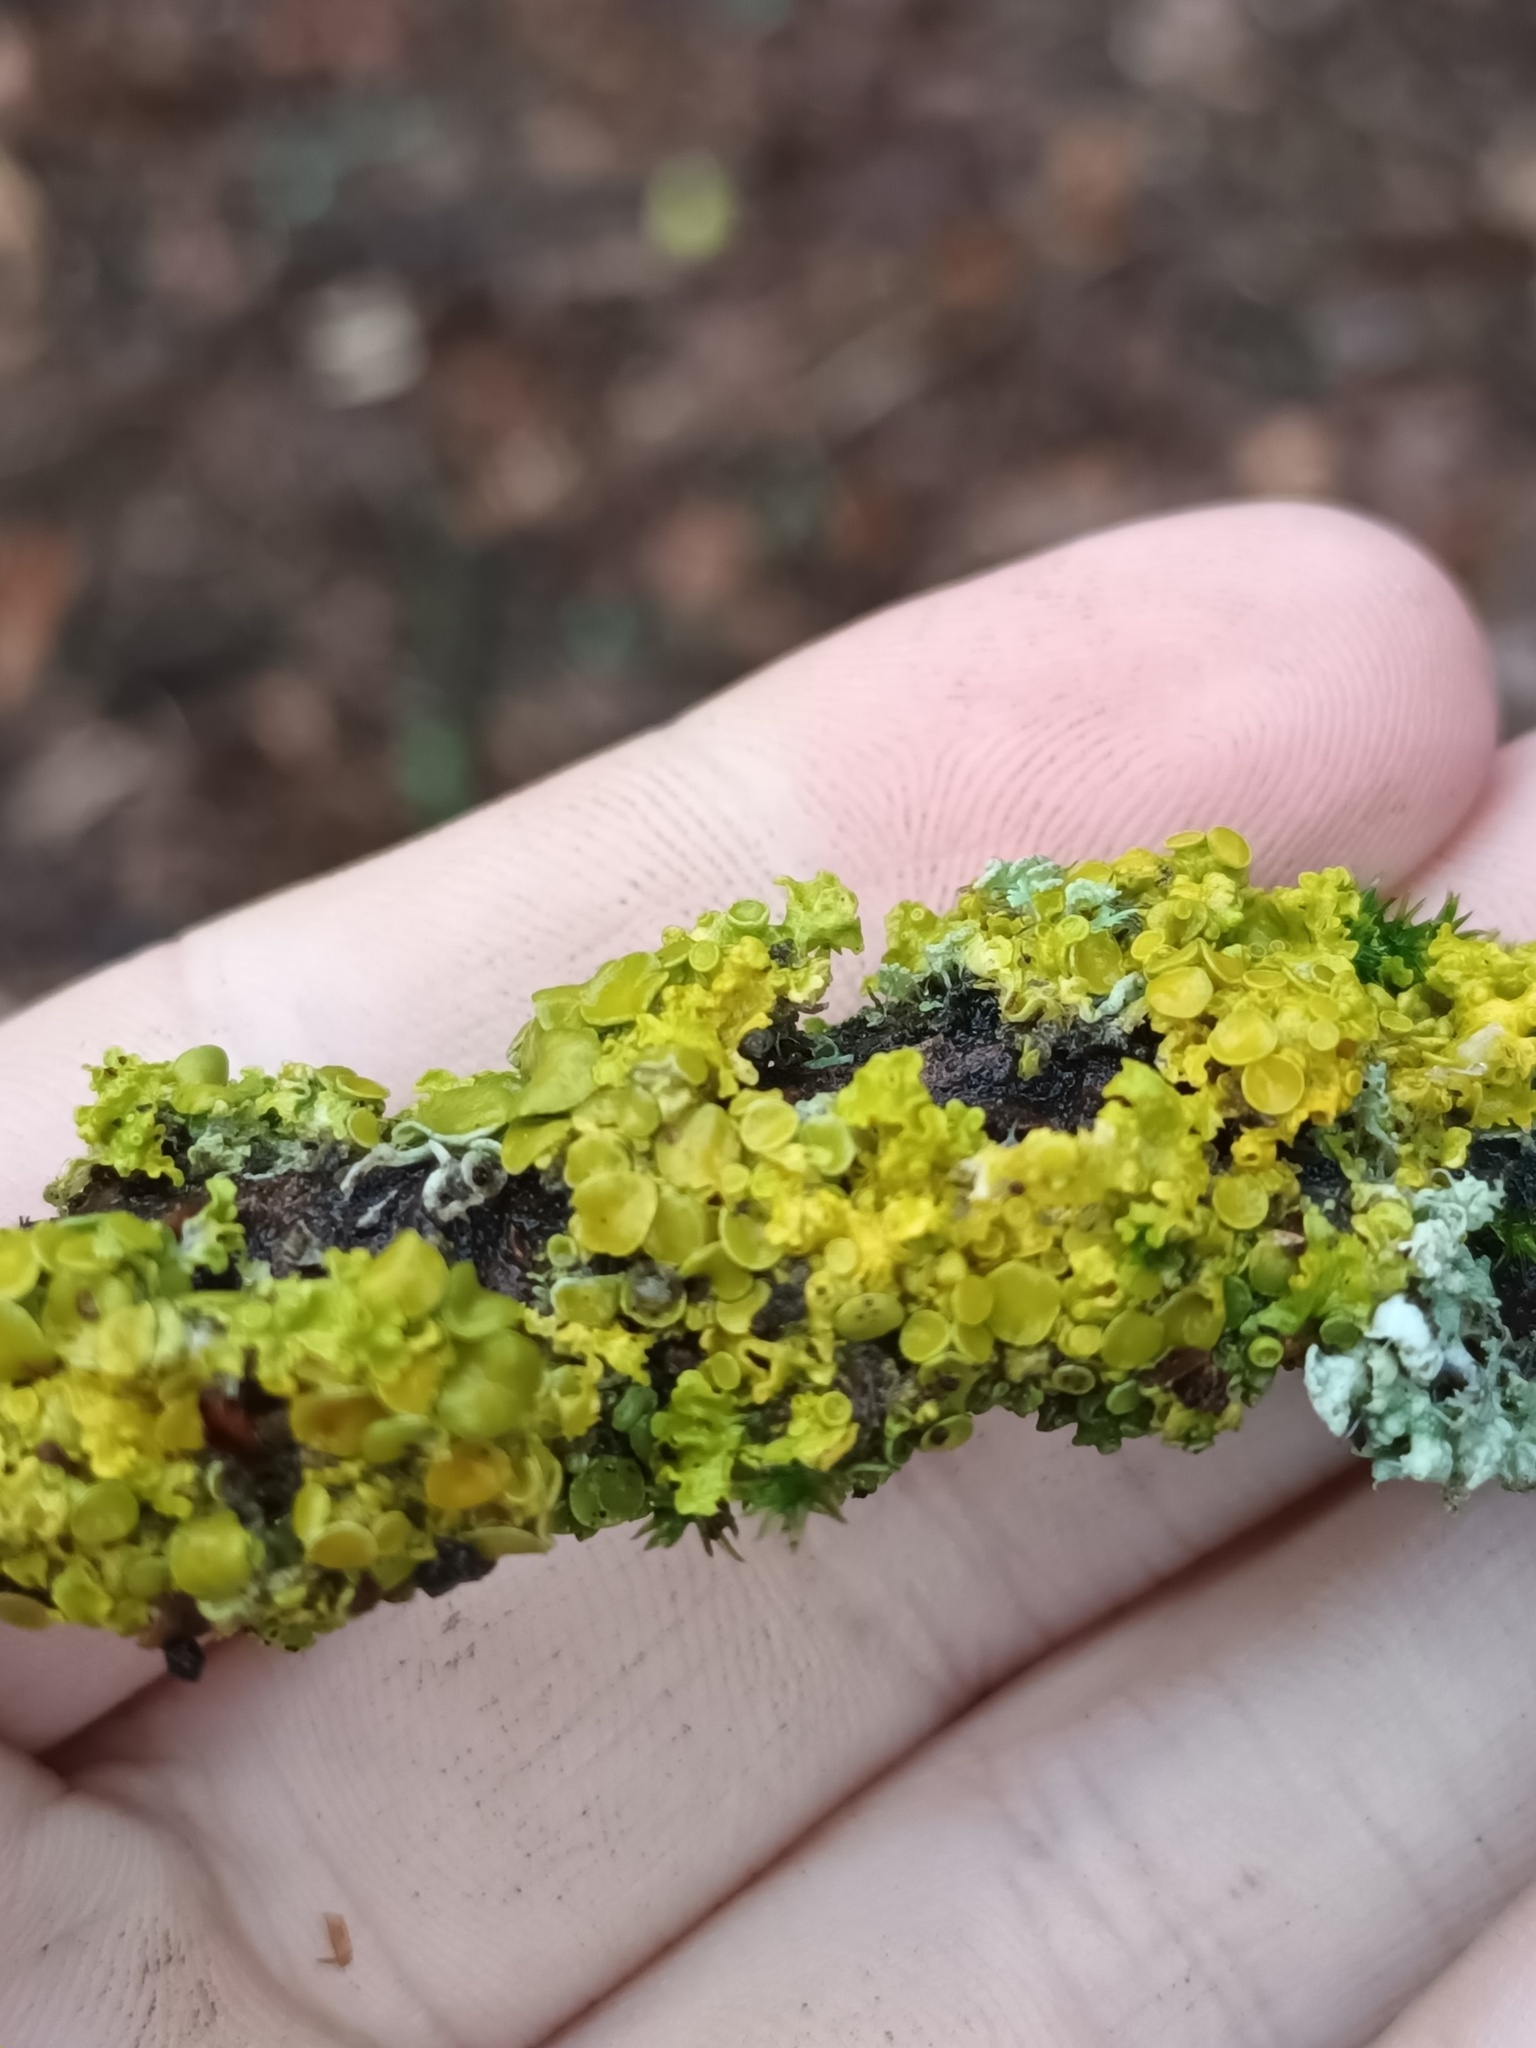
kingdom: Fungi
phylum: Ascomycota
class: Lecanoromycetes
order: Teloschistales
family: Teloschistaceae
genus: Xanthoria
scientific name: Xanthoria parietina
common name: Common orange lichen
